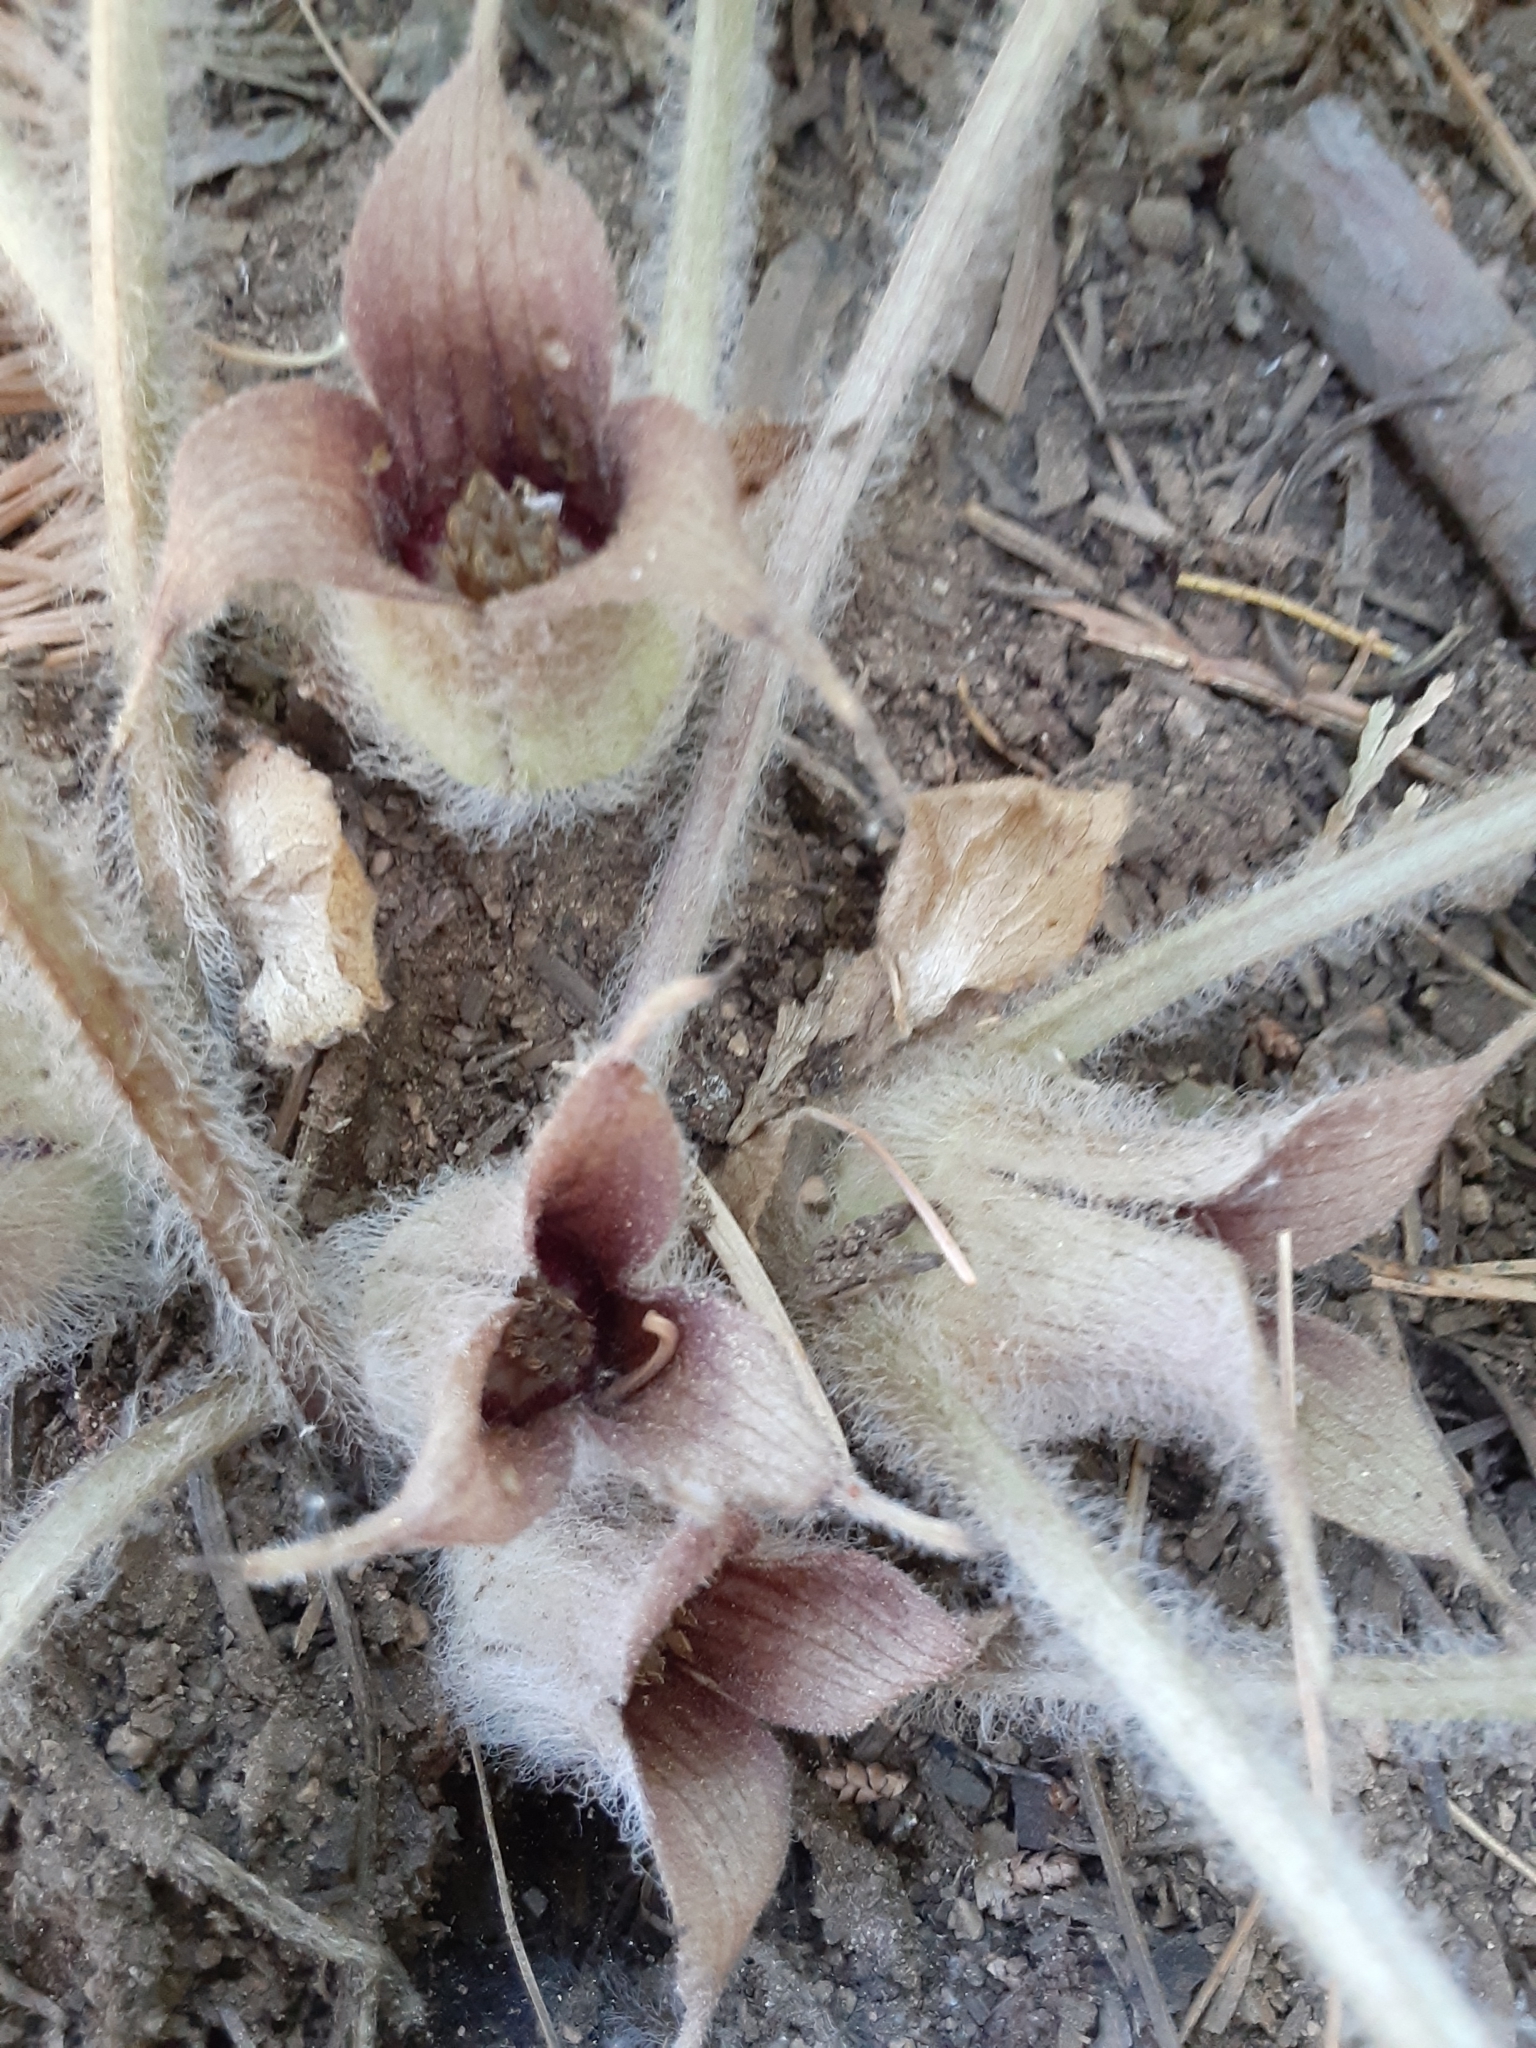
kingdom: Plantae
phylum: Tracheophyta
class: Magnoliopsida
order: Piperales
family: Aristolochiaceae
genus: Asarum
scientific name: Asarum hartwegii
